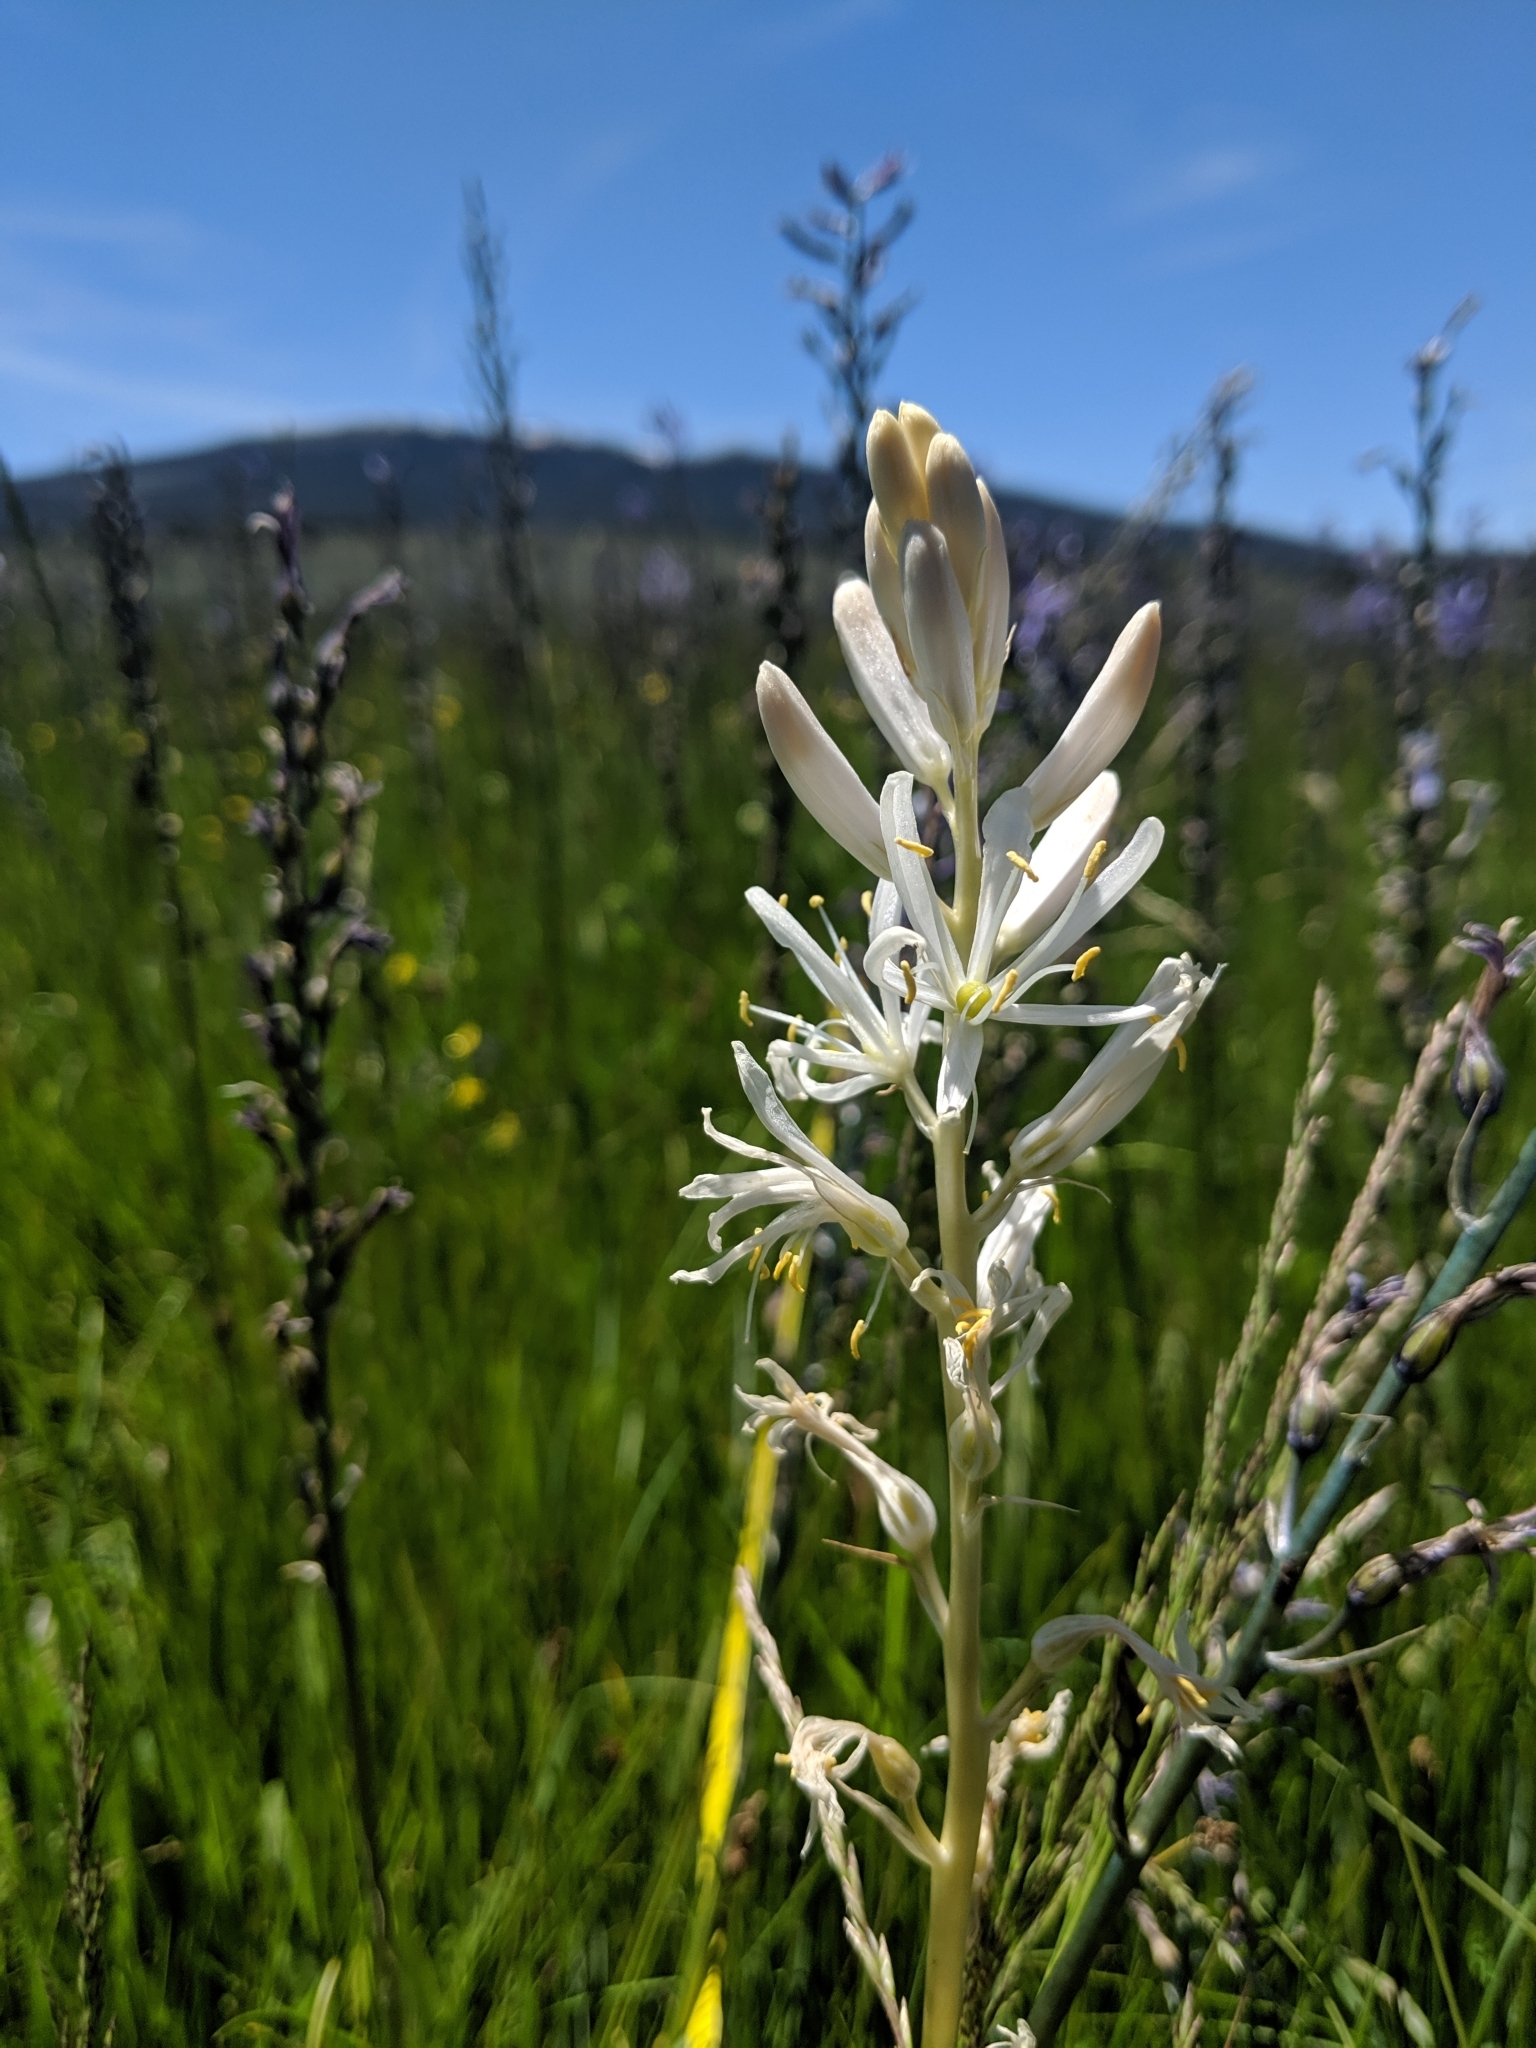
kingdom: Plantae
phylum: Tracheophyta
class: Liliopsida
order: Asparagales
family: Asparagaceae
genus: Camassia
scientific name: Camassia quamash
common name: Common camas
